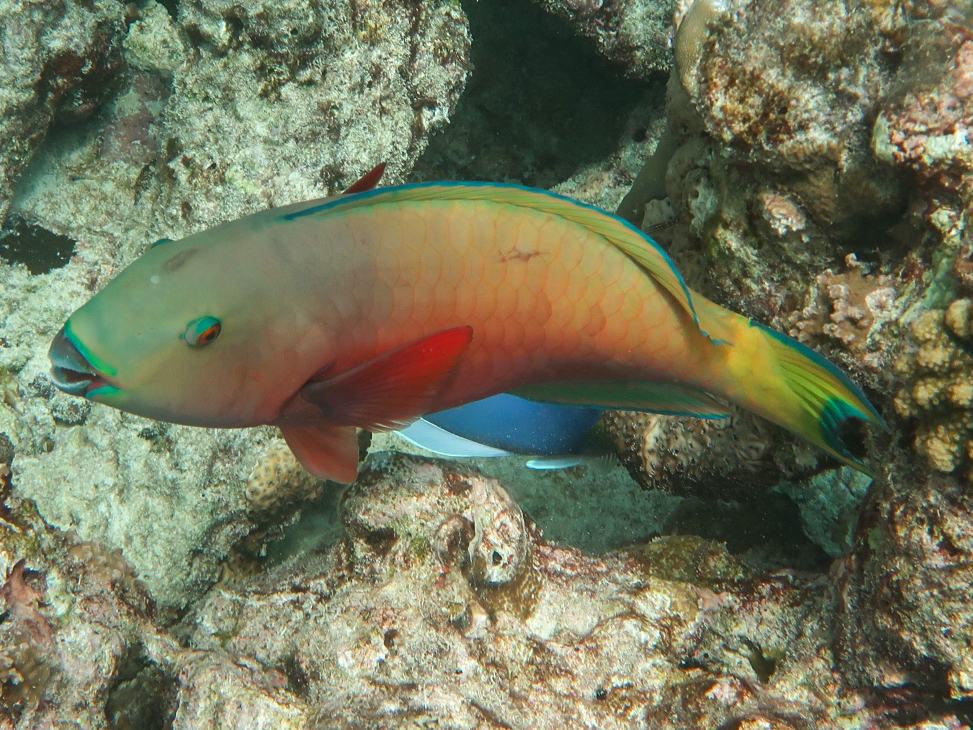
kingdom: Animalia
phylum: Chordata
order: Perciformes
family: Scaridae
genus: Chlorurus
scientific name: Chlorurus strongylocephalus
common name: Steephead parrotfish
